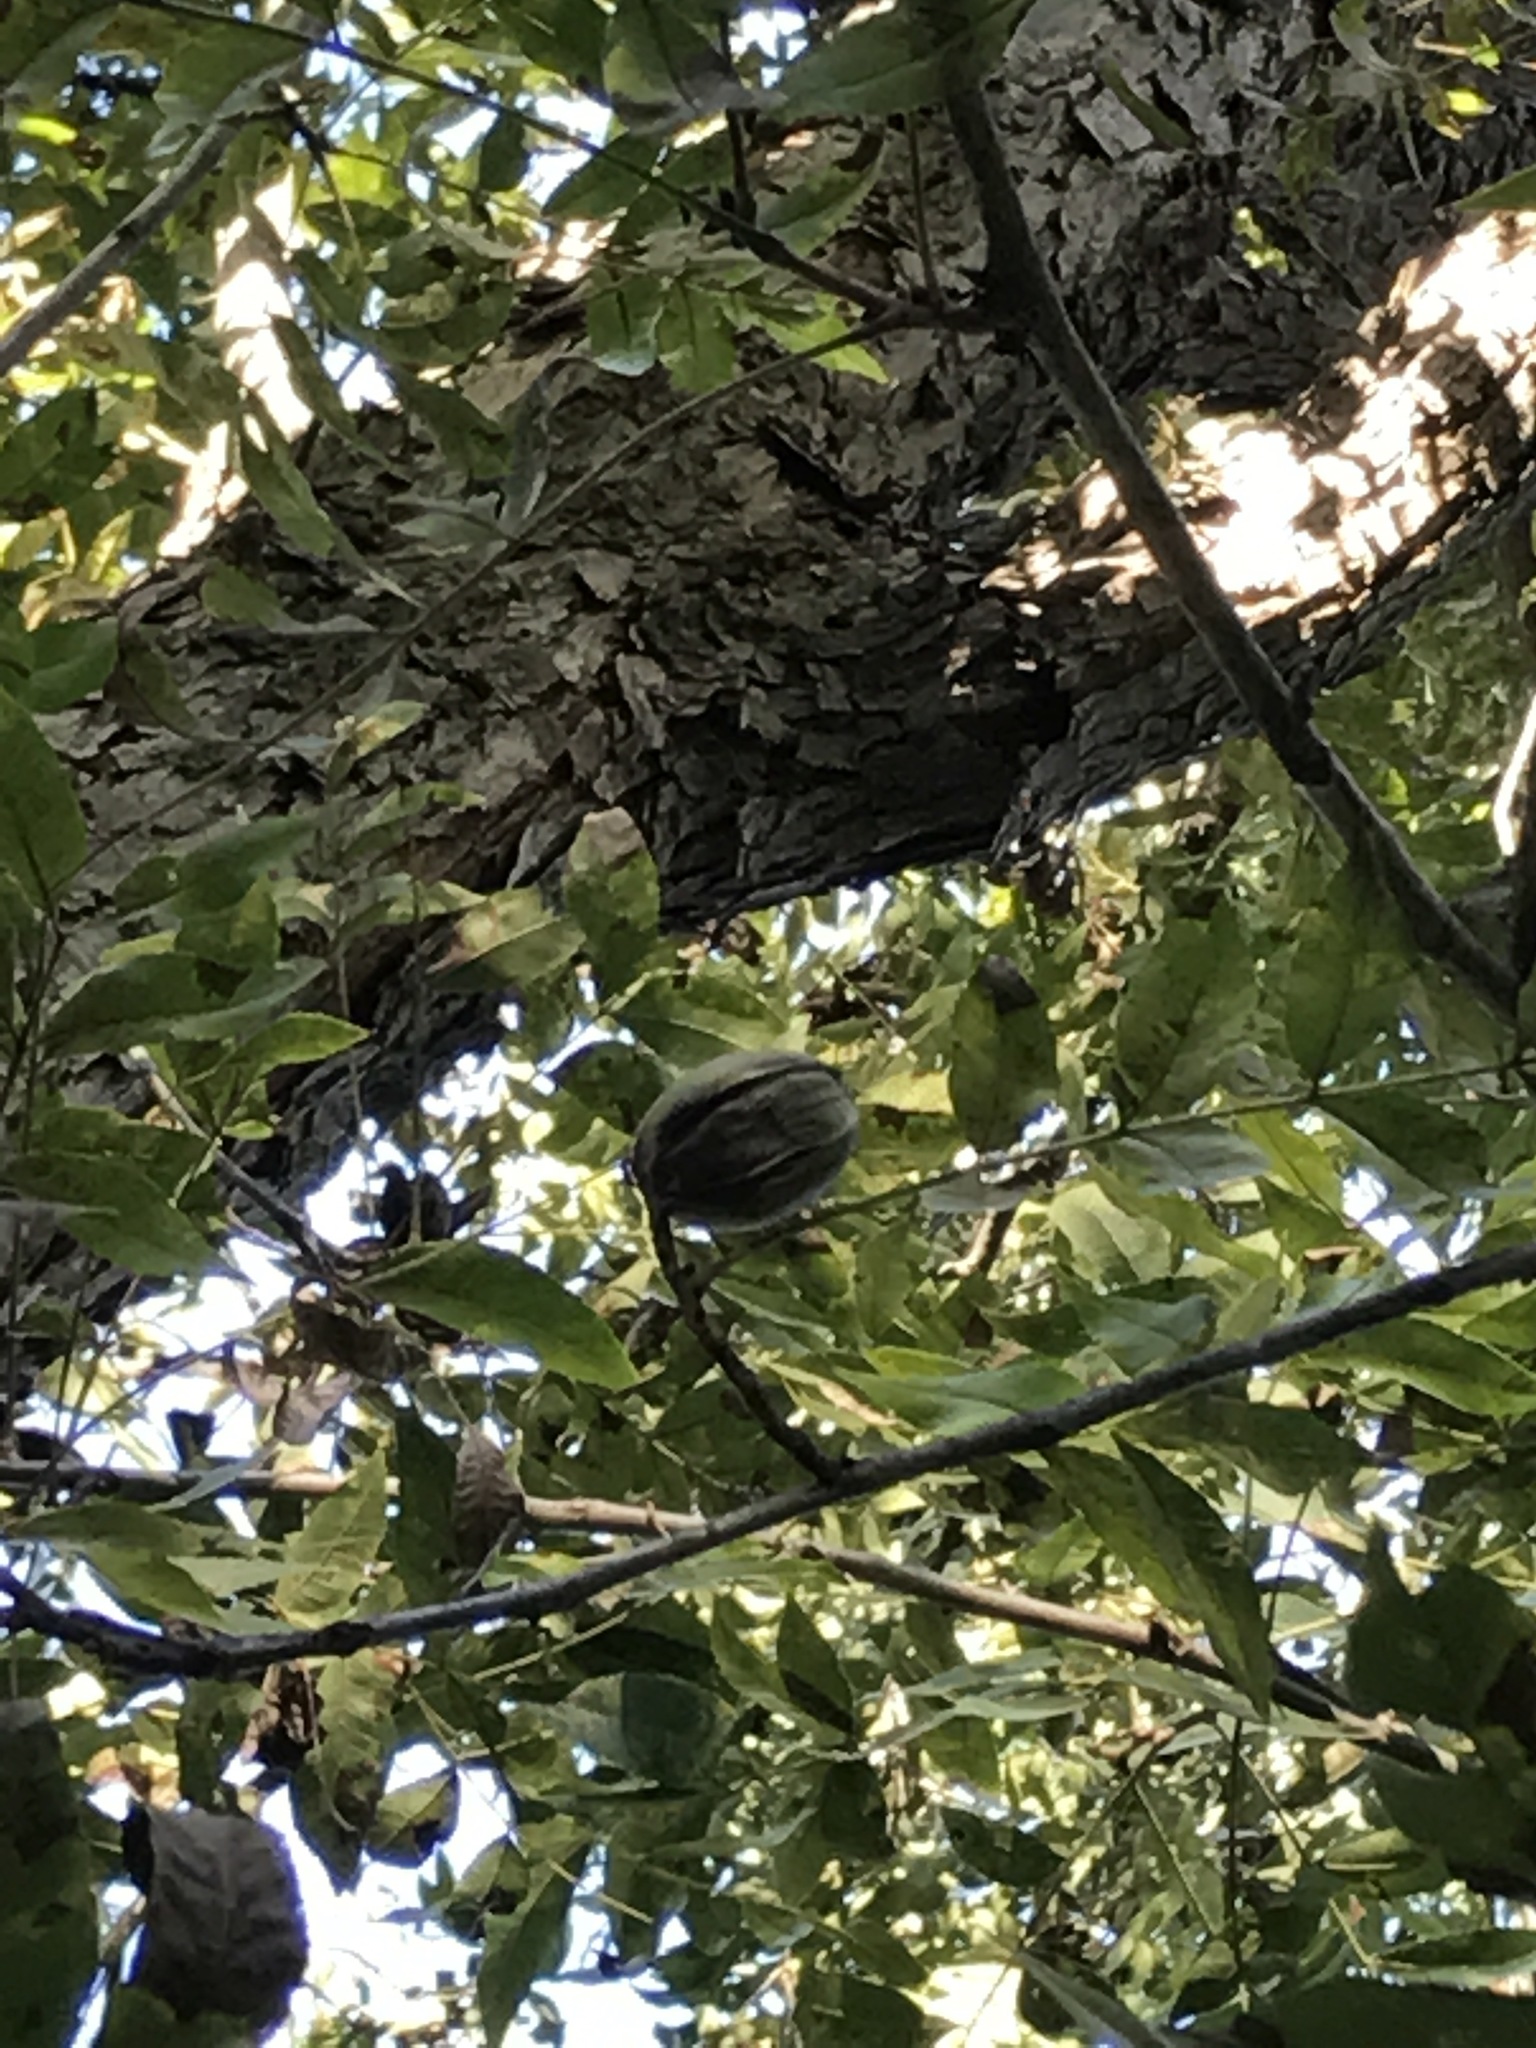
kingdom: Plantae
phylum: Tracheophyta
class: Magnoliopsida
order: Fagales
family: Juglandaceae
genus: Carya
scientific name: Carya illinoinensis
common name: Pecan
